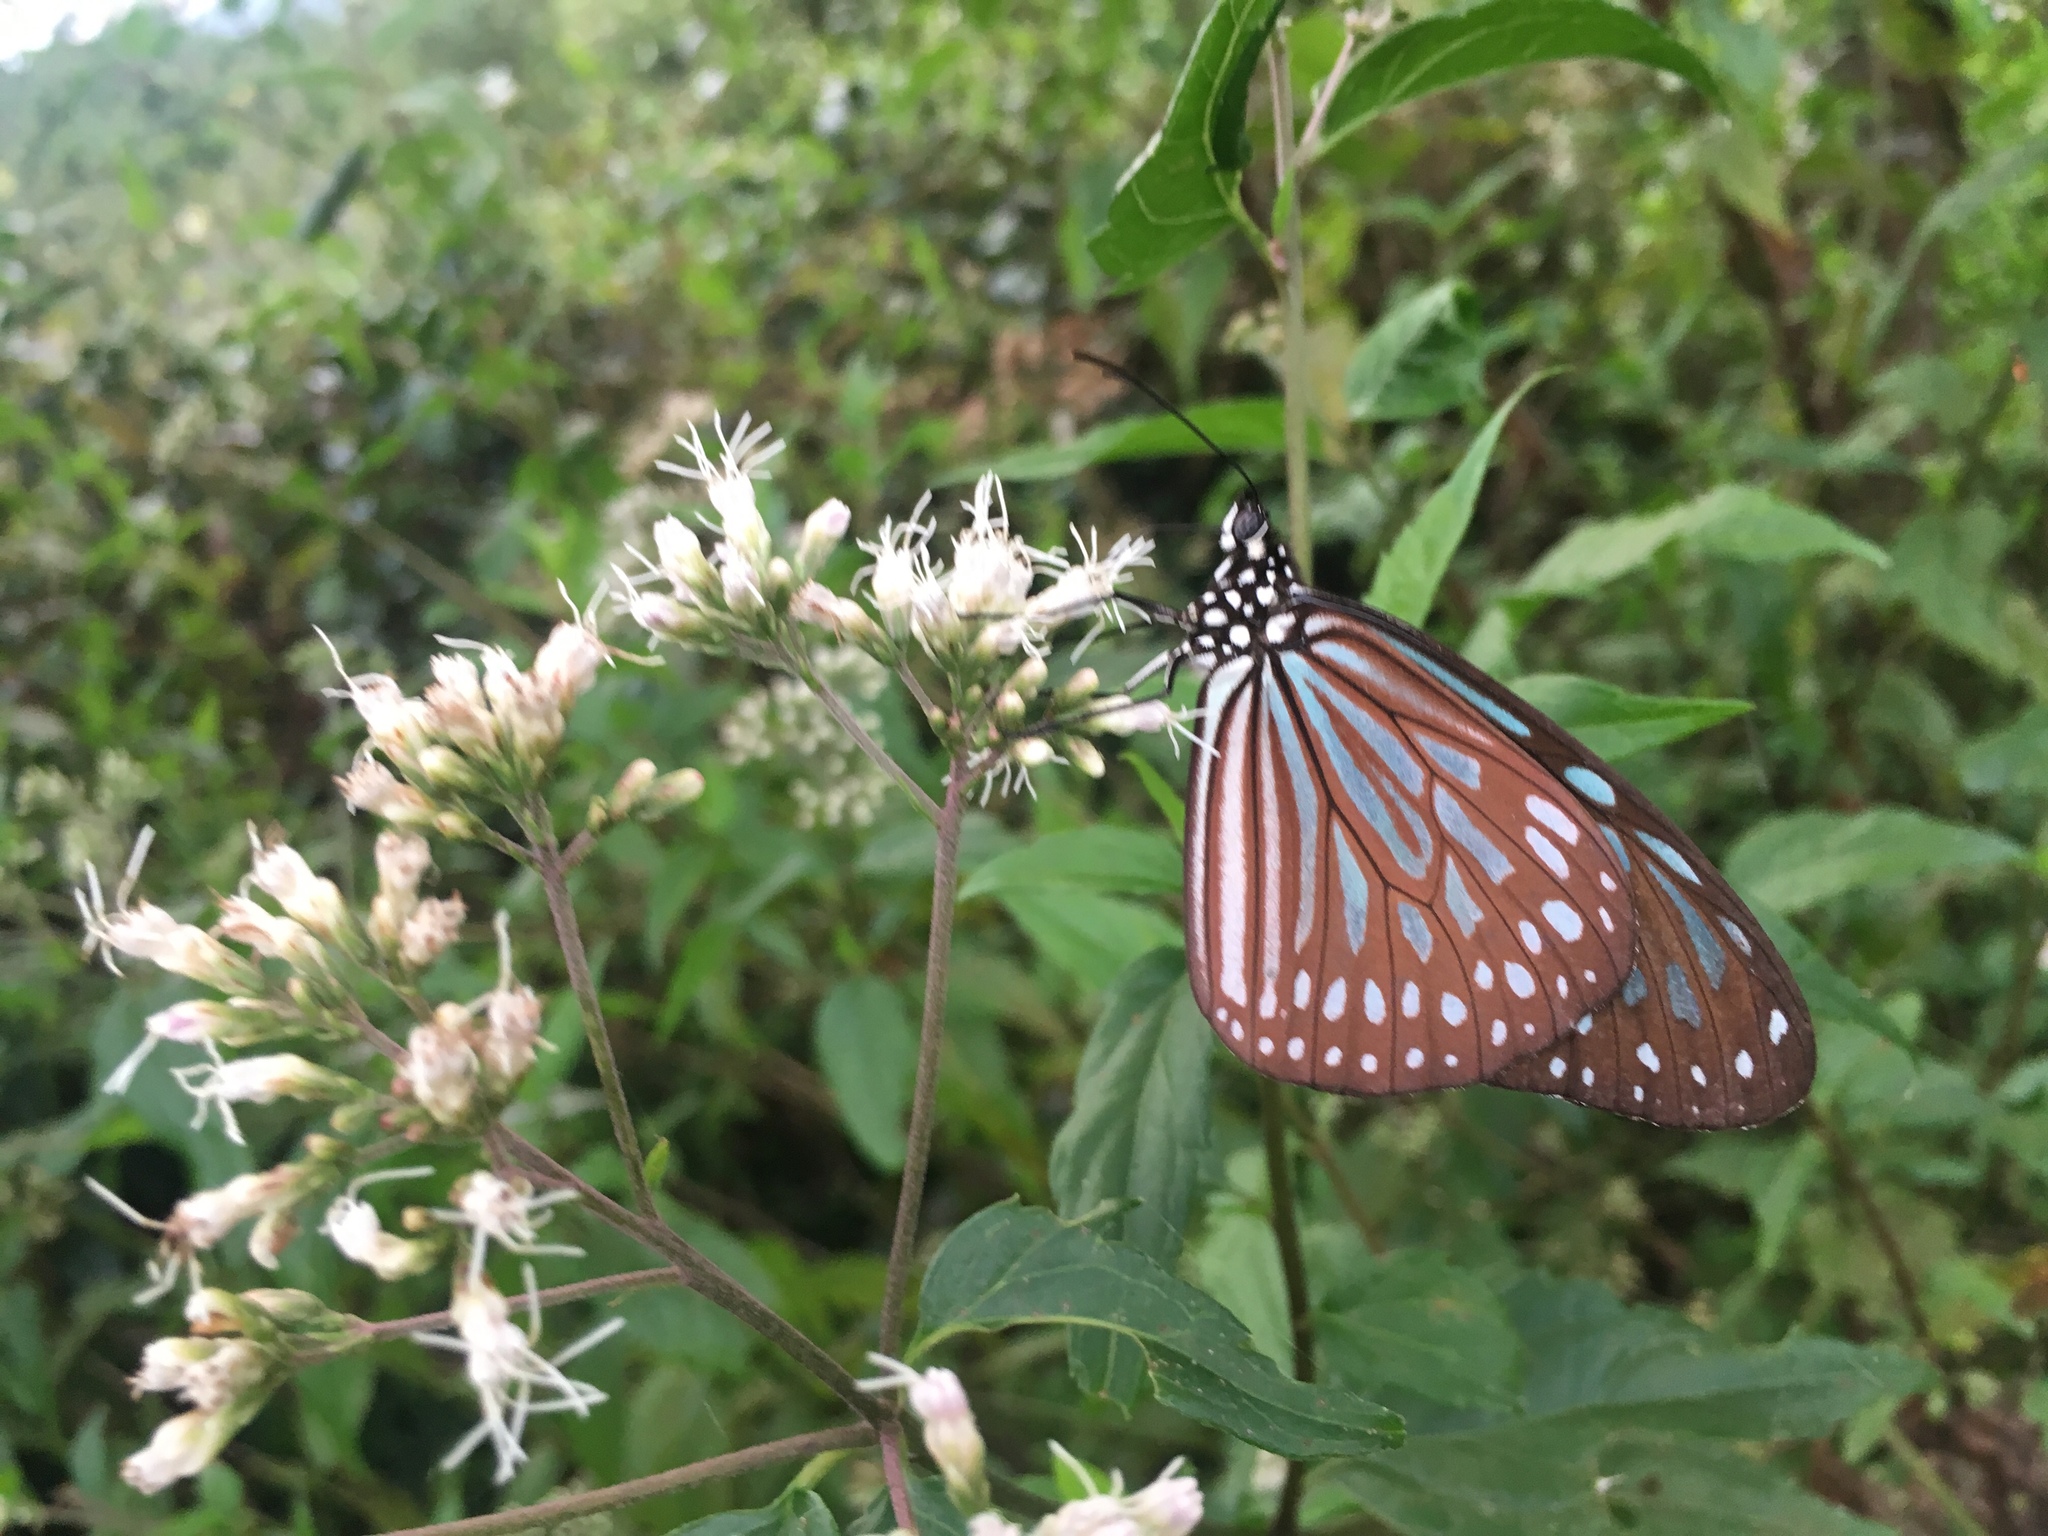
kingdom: Animalia
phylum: Arthropoda
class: Insecta
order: Lepidoptera
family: Nymphalidae
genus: Ideopsis
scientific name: Ideopsis similis
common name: Ceylon blue glassy tiger
